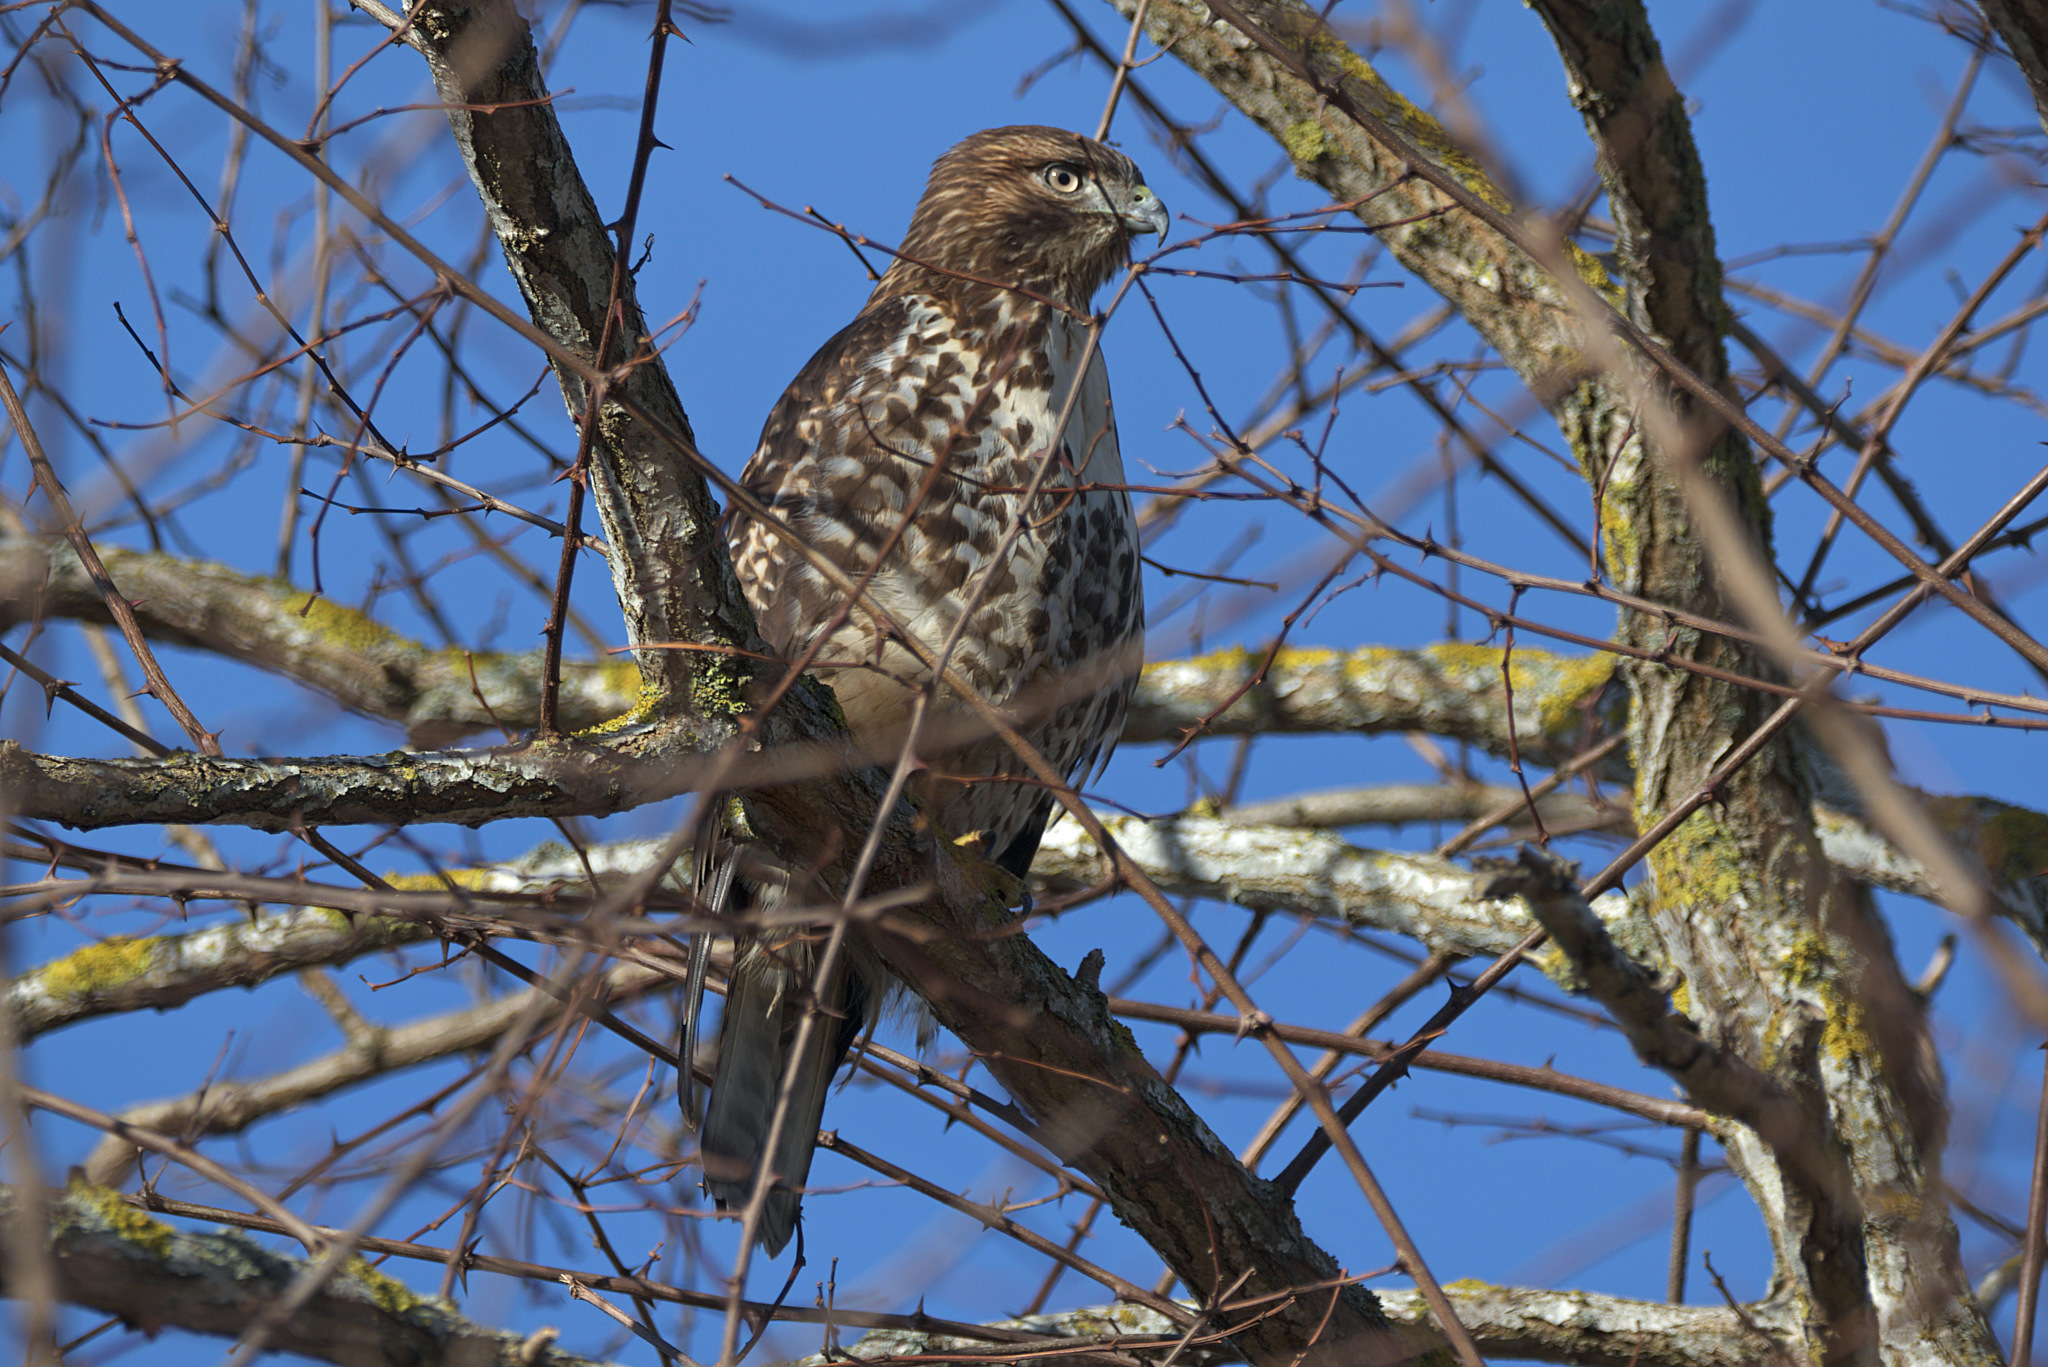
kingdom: Animalia
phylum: Chordata
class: Aves
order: Accipitriformes
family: Accipitridae
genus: Buteo
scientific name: Buteo jamaicensis
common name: Red-tailed hawk
